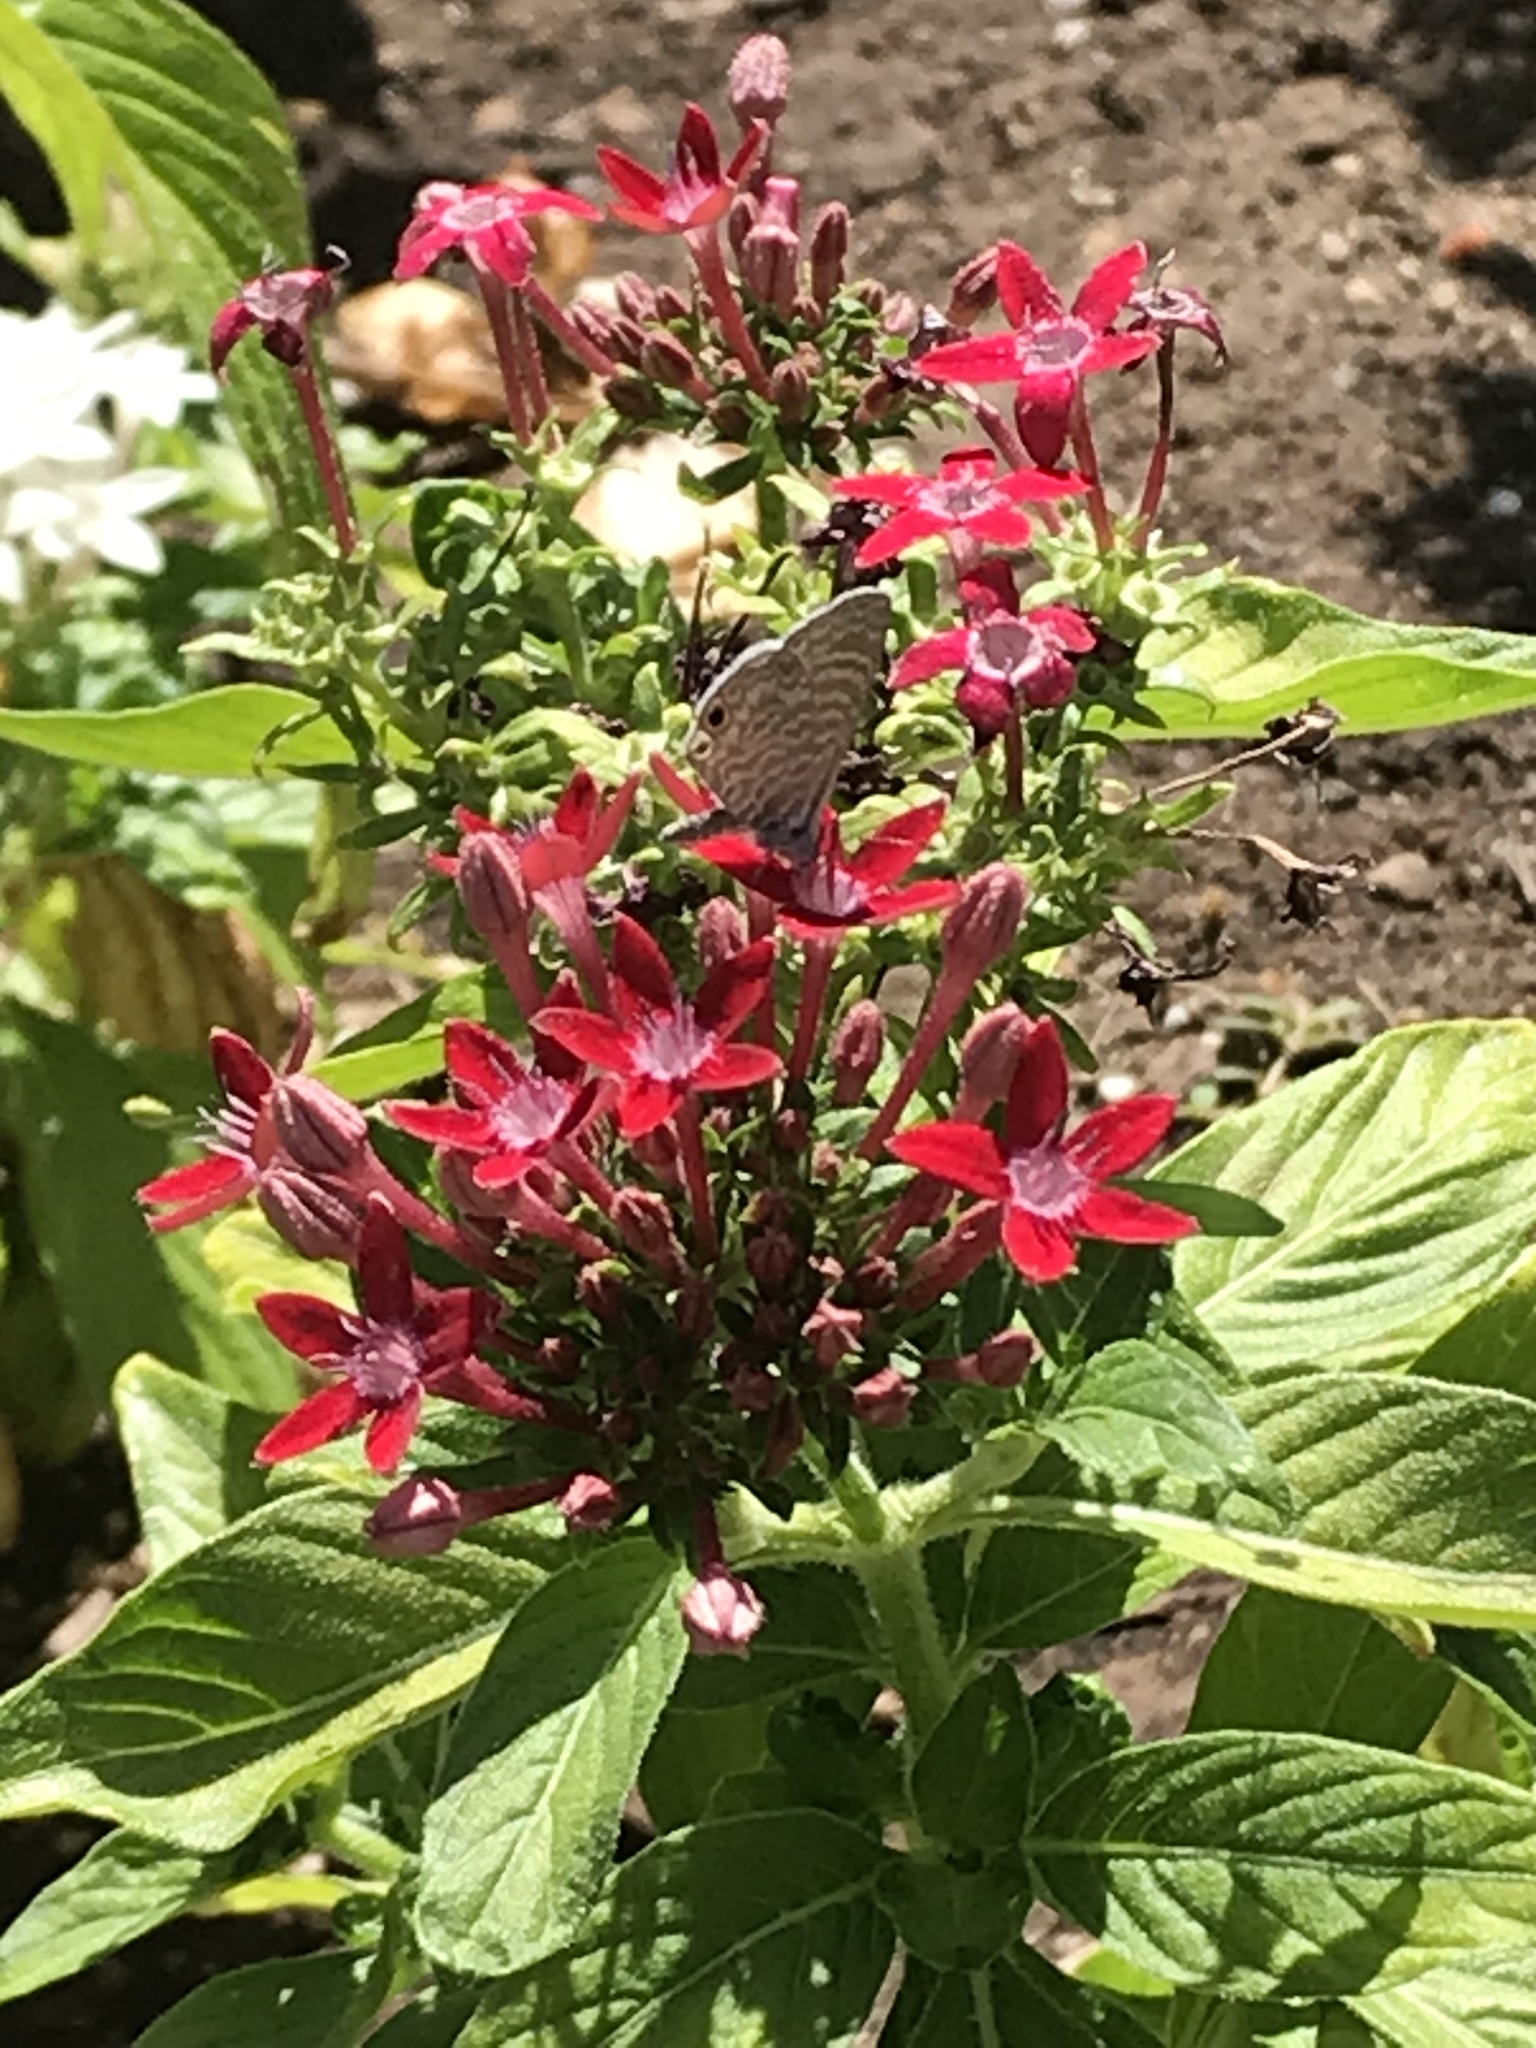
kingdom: Animalia
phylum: Arthropoda
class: Insecta
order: Lepidoptera
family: Lycaenidae
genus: Leptotes
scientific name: Leptotes marina
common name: Marine blue
